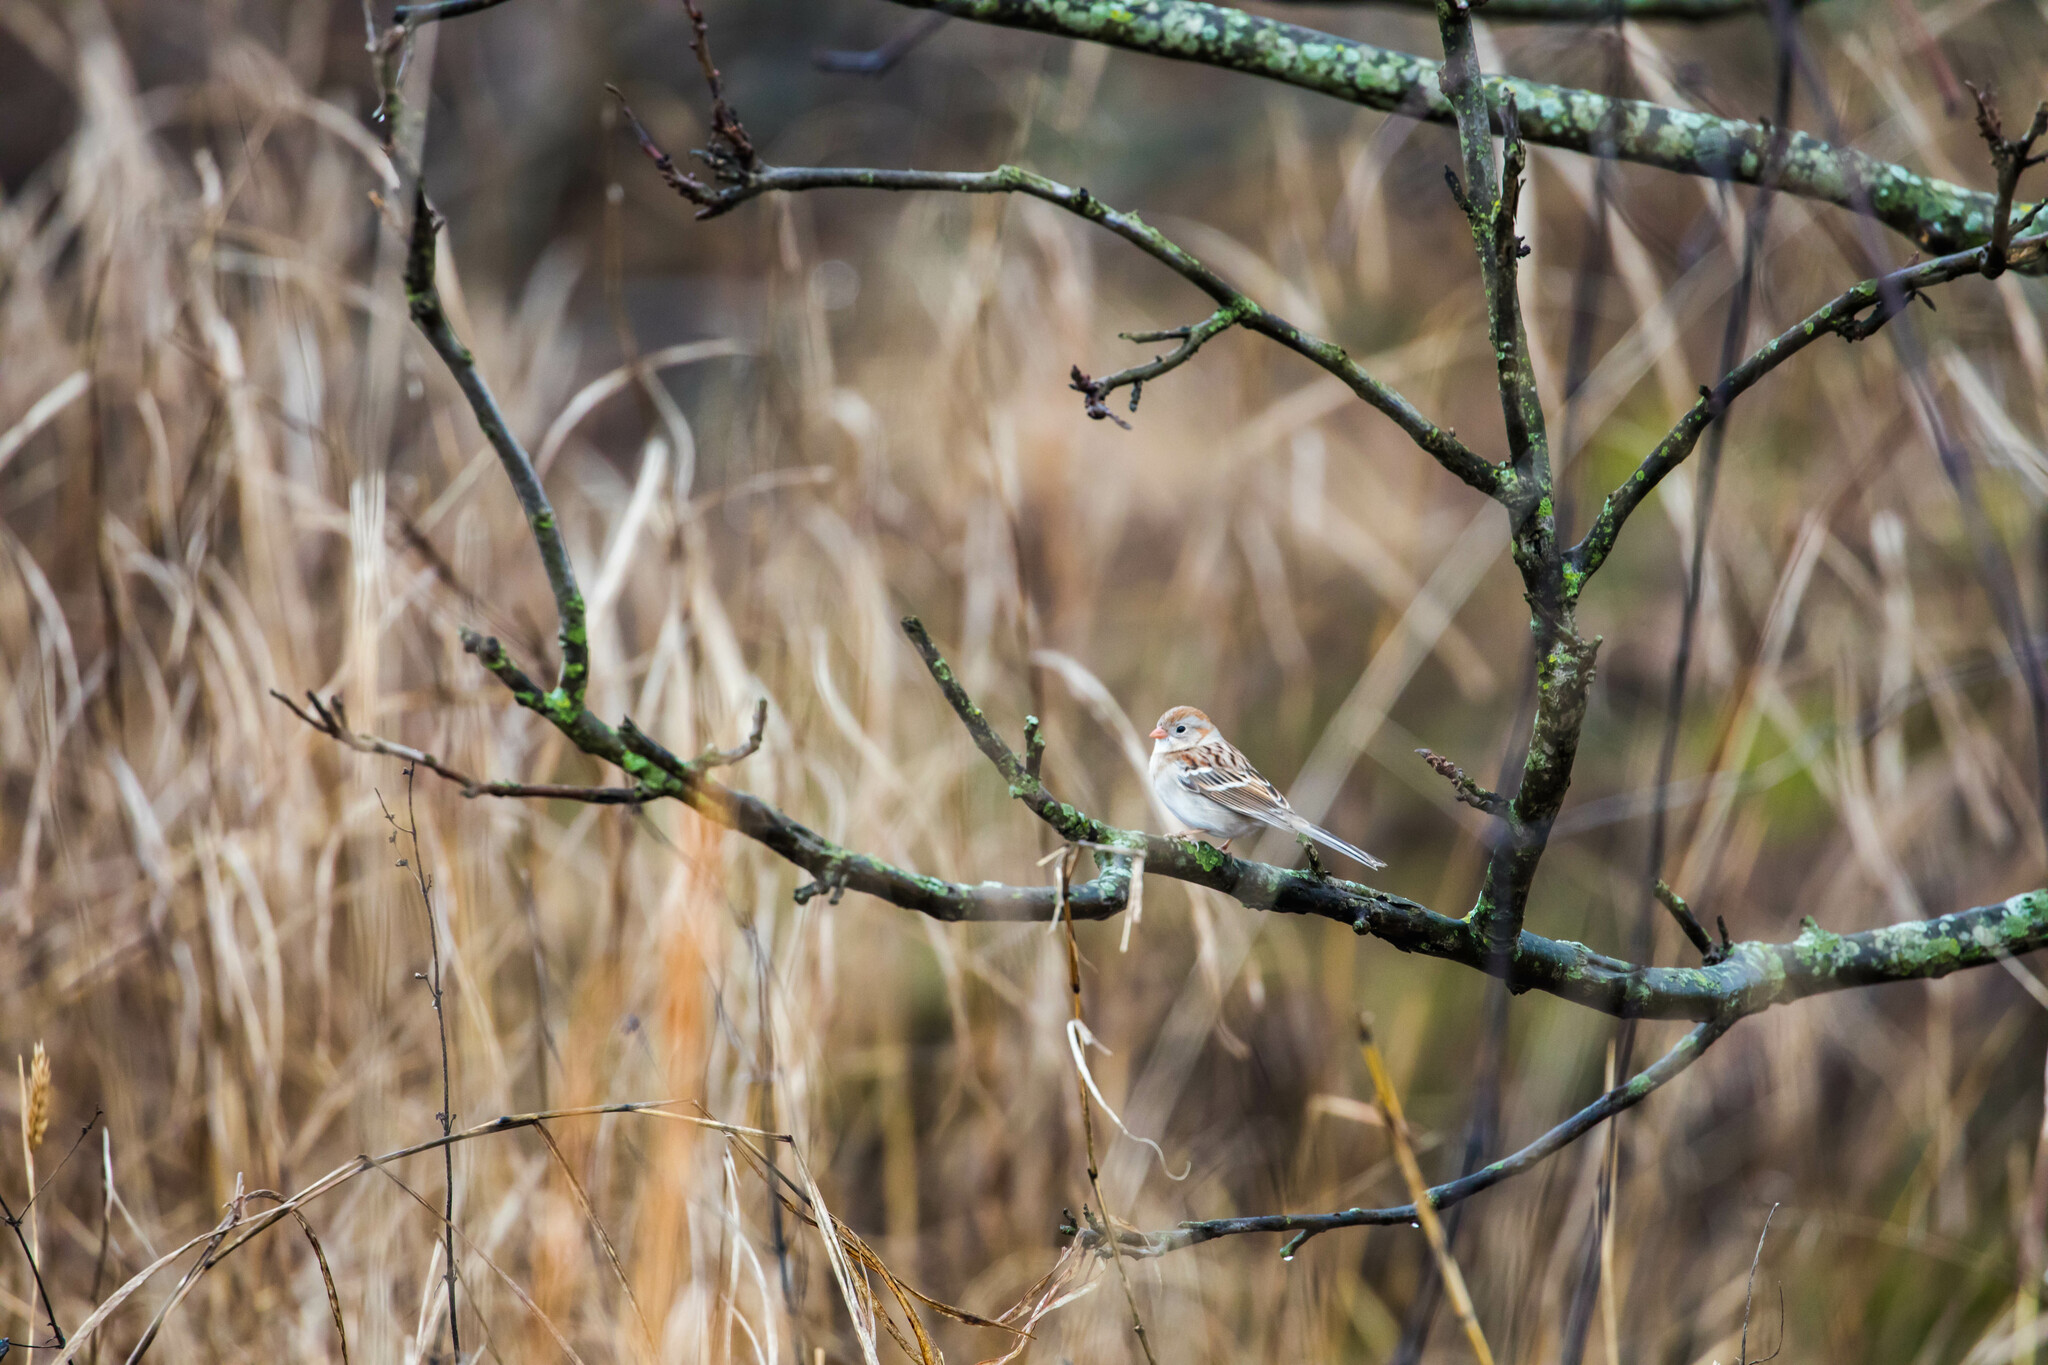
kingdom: Animalia
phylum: Chordata
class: Aves
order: Passeriformes
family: Passerellidae
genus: Spizella
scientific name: Spizella pusilla
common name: Field sparrow
